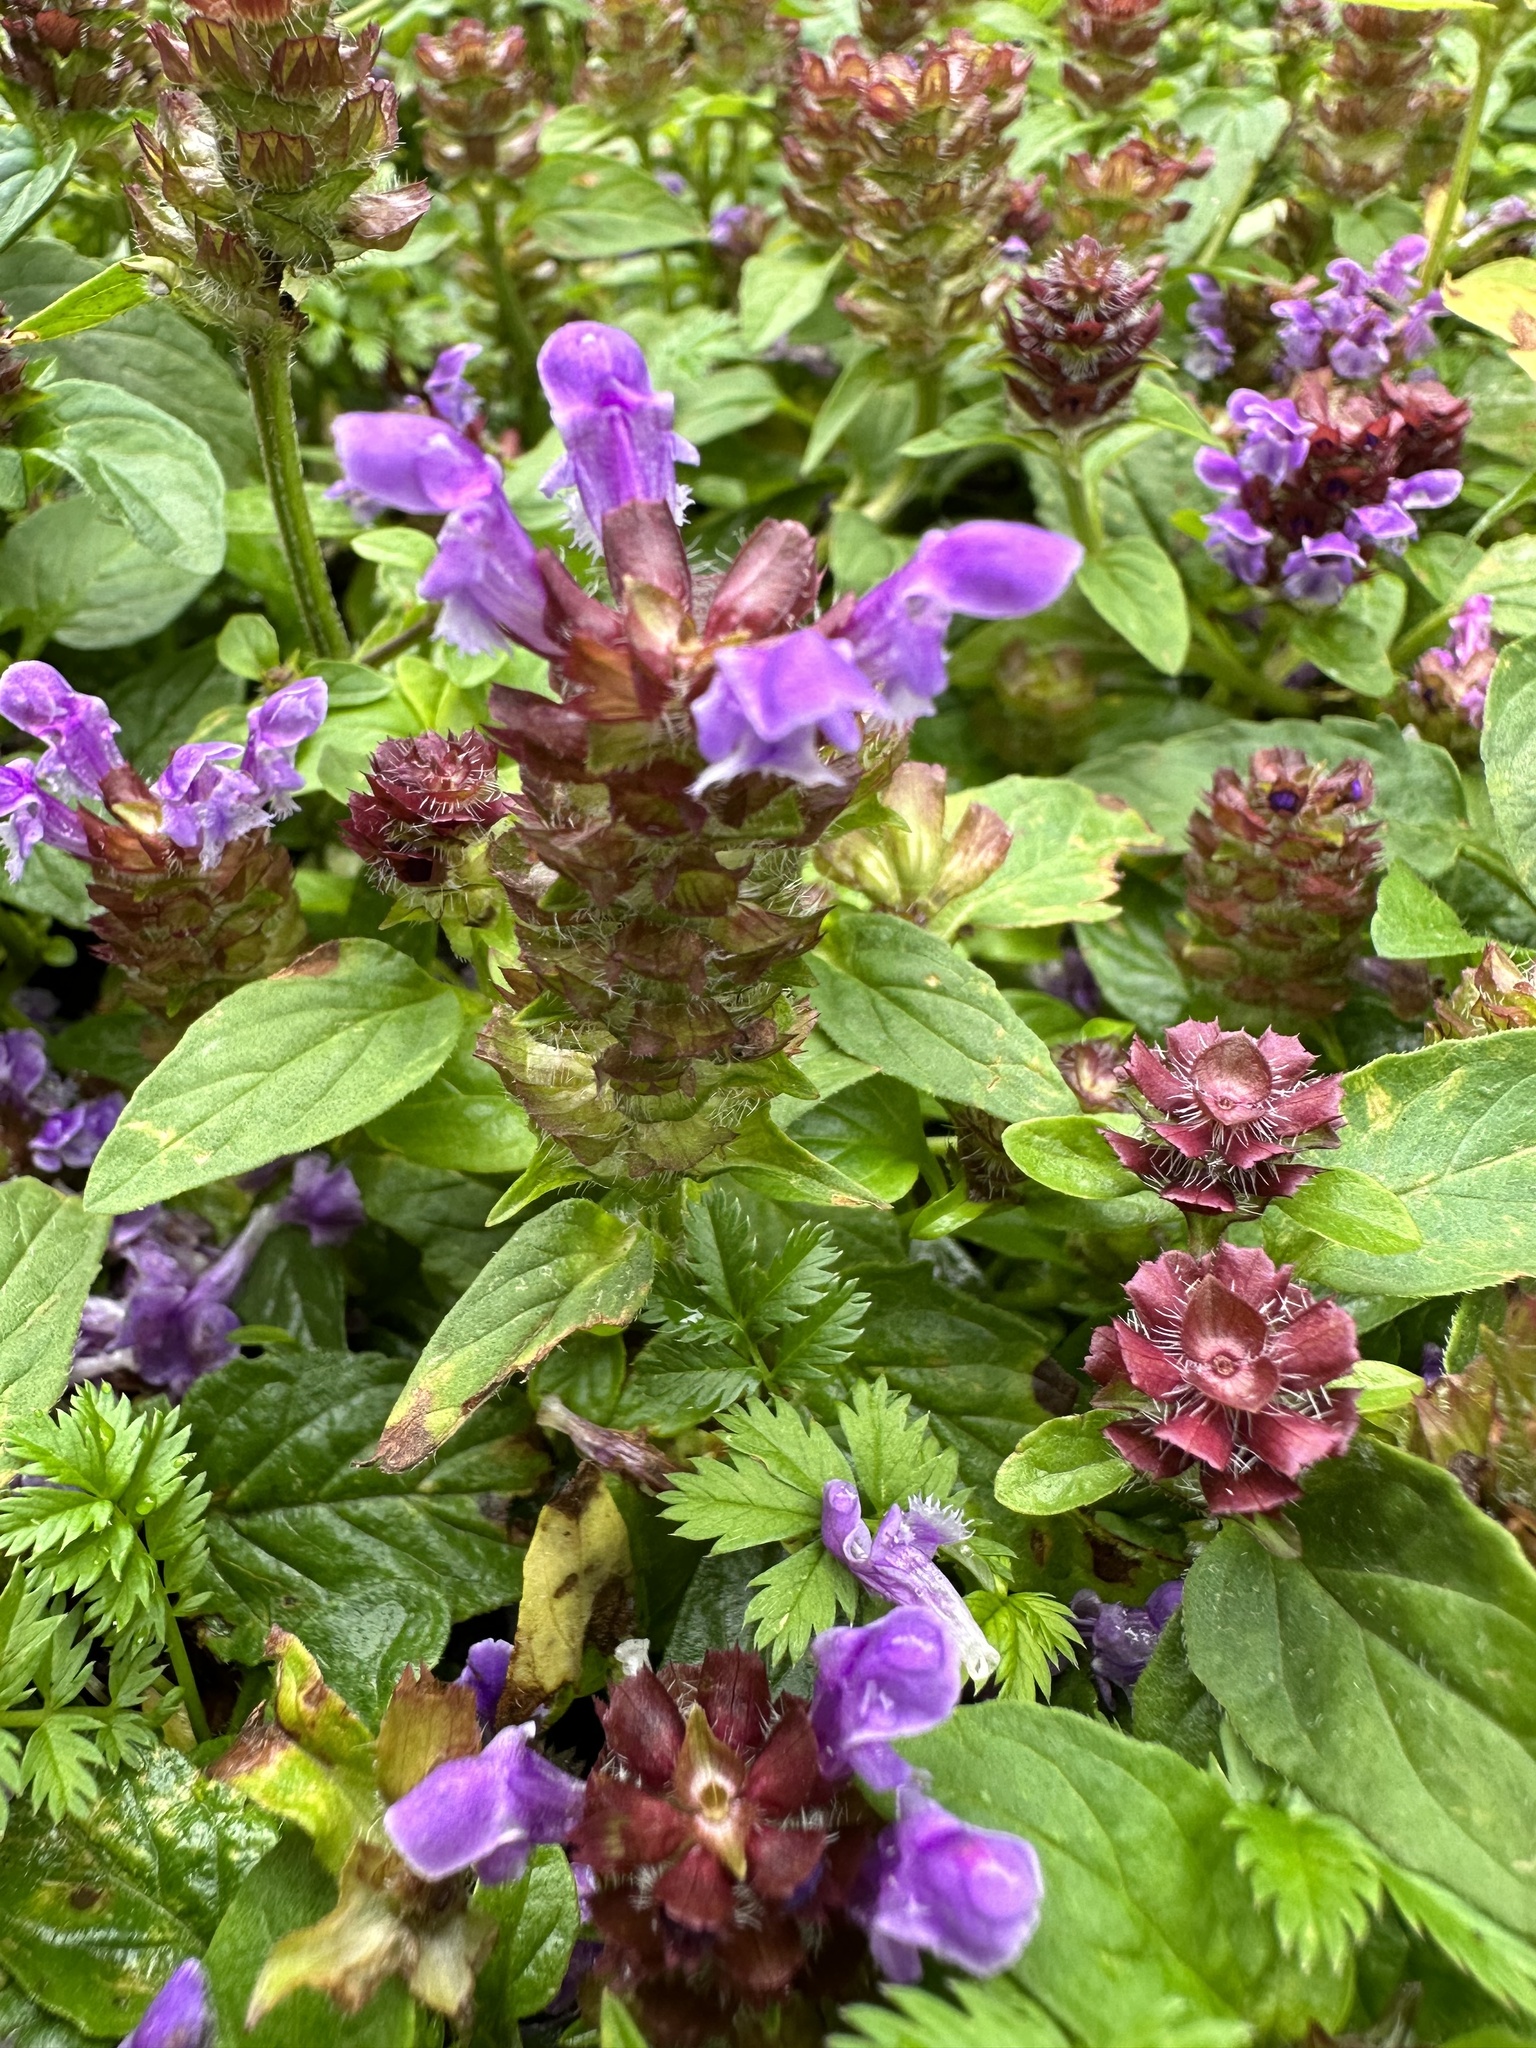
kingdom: Plantae
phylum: Tracheophyta
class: Magnoliopsida
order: Lamiales
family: Lamiaceae
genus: Prunella
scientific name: Prunella vulgaris
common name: Heal-all
